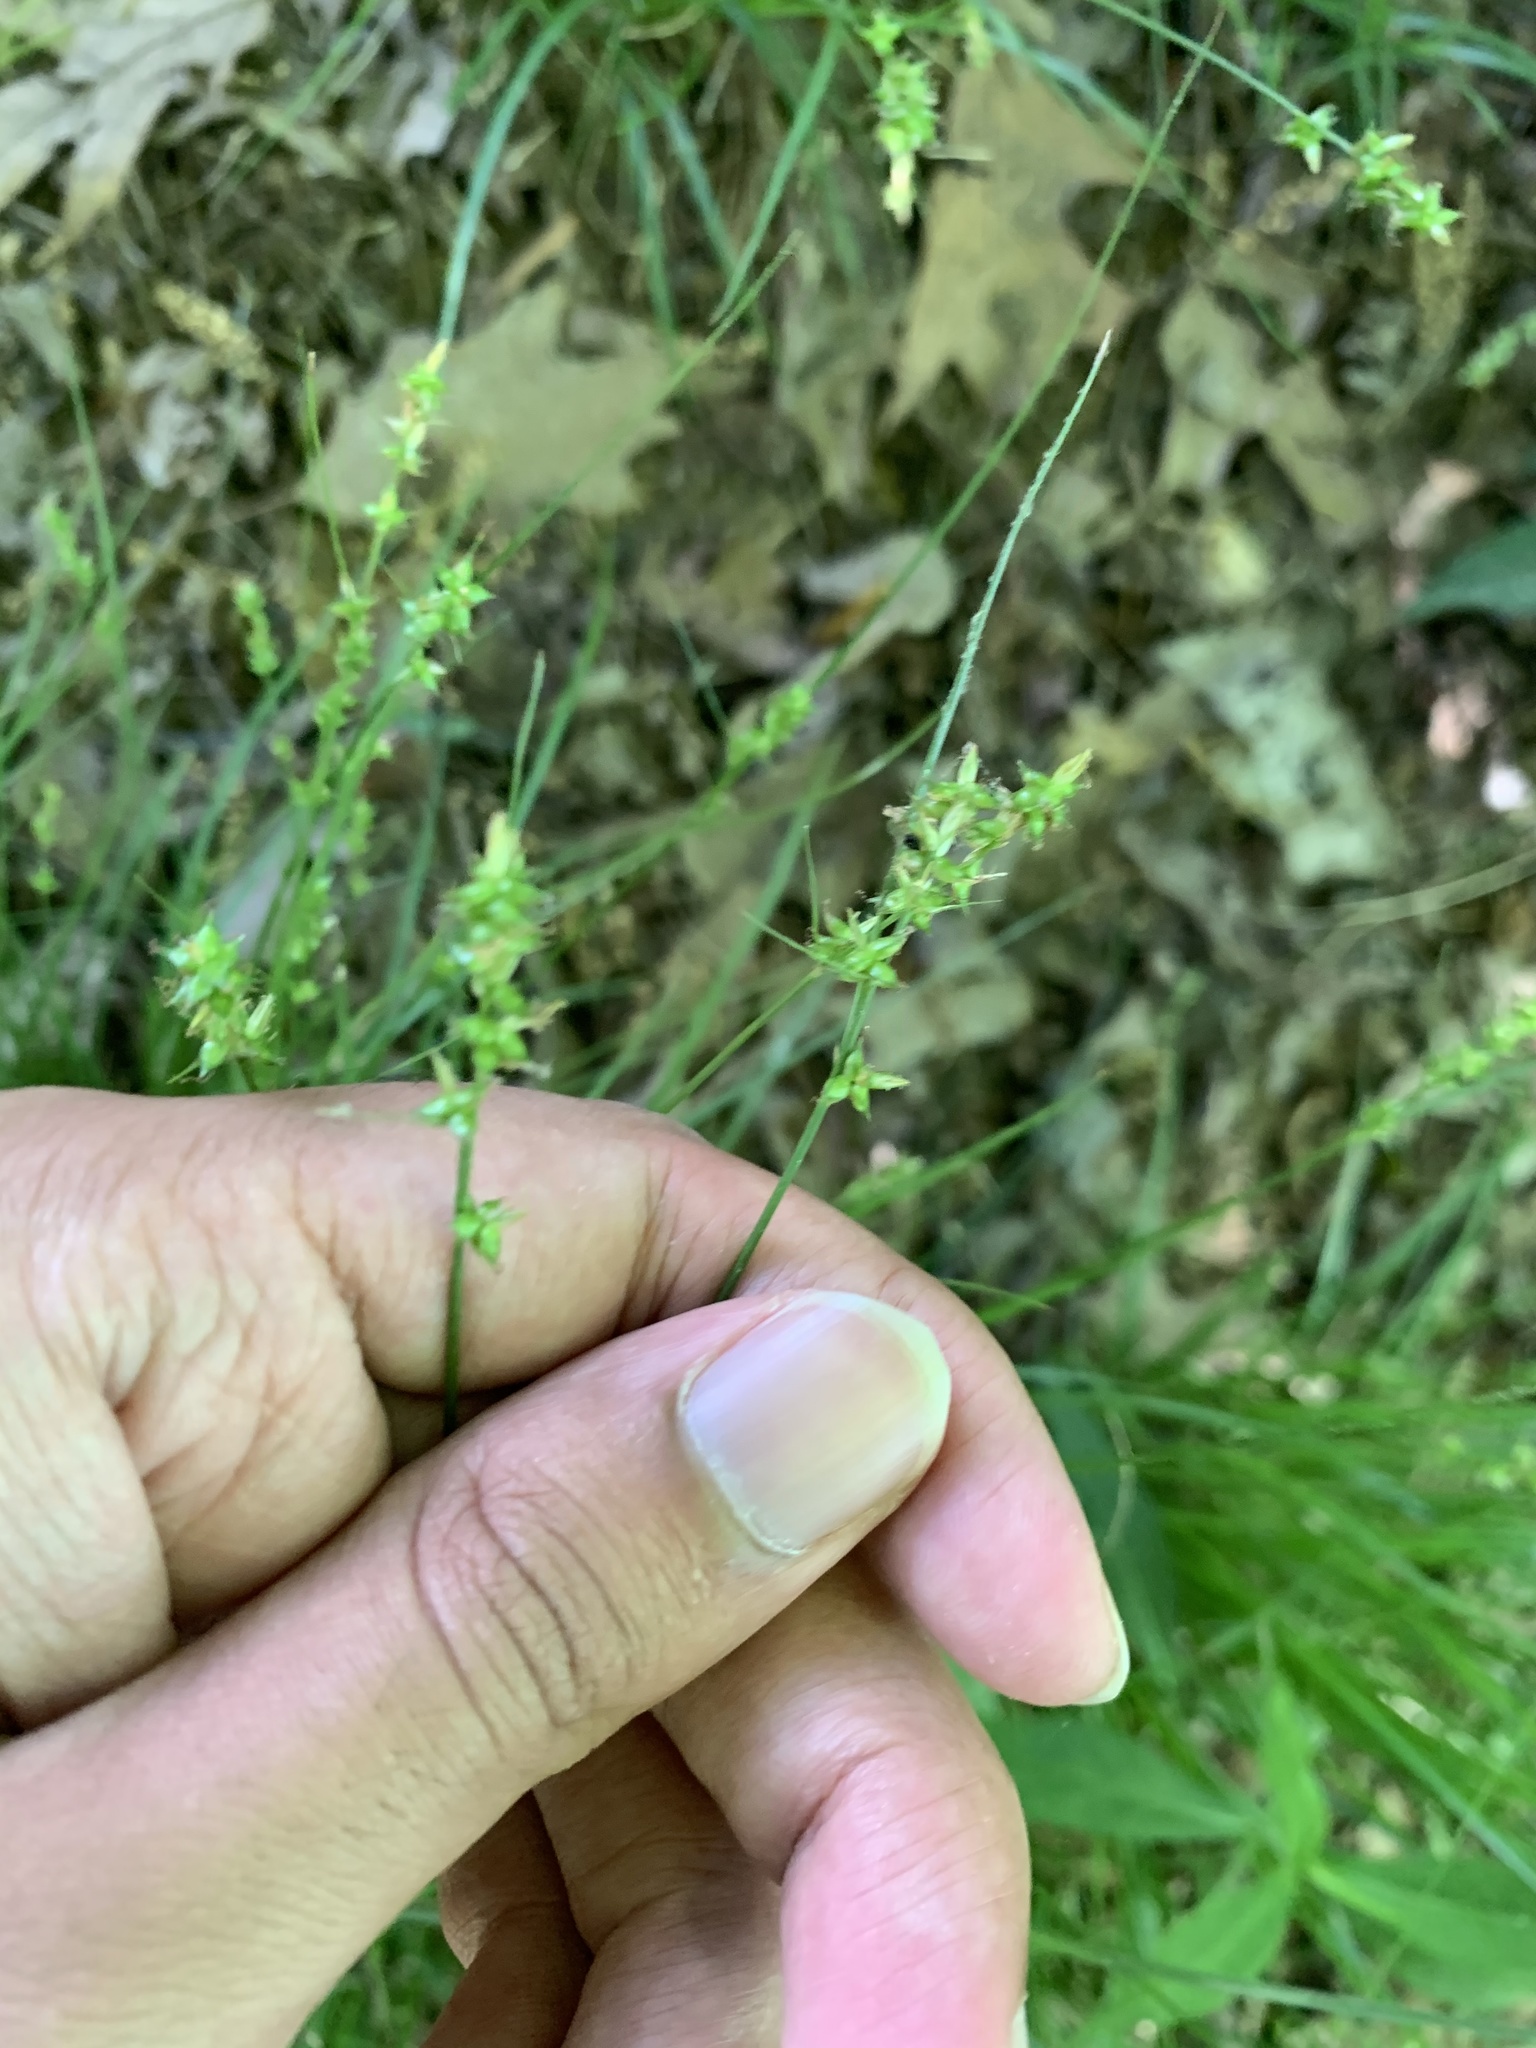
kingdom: Plantae
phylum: Tracheophyta
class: Liliopsida
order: Poales
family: Cyperaceae
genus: Carex
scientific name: Carex radiata
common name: Eastern star sedge
